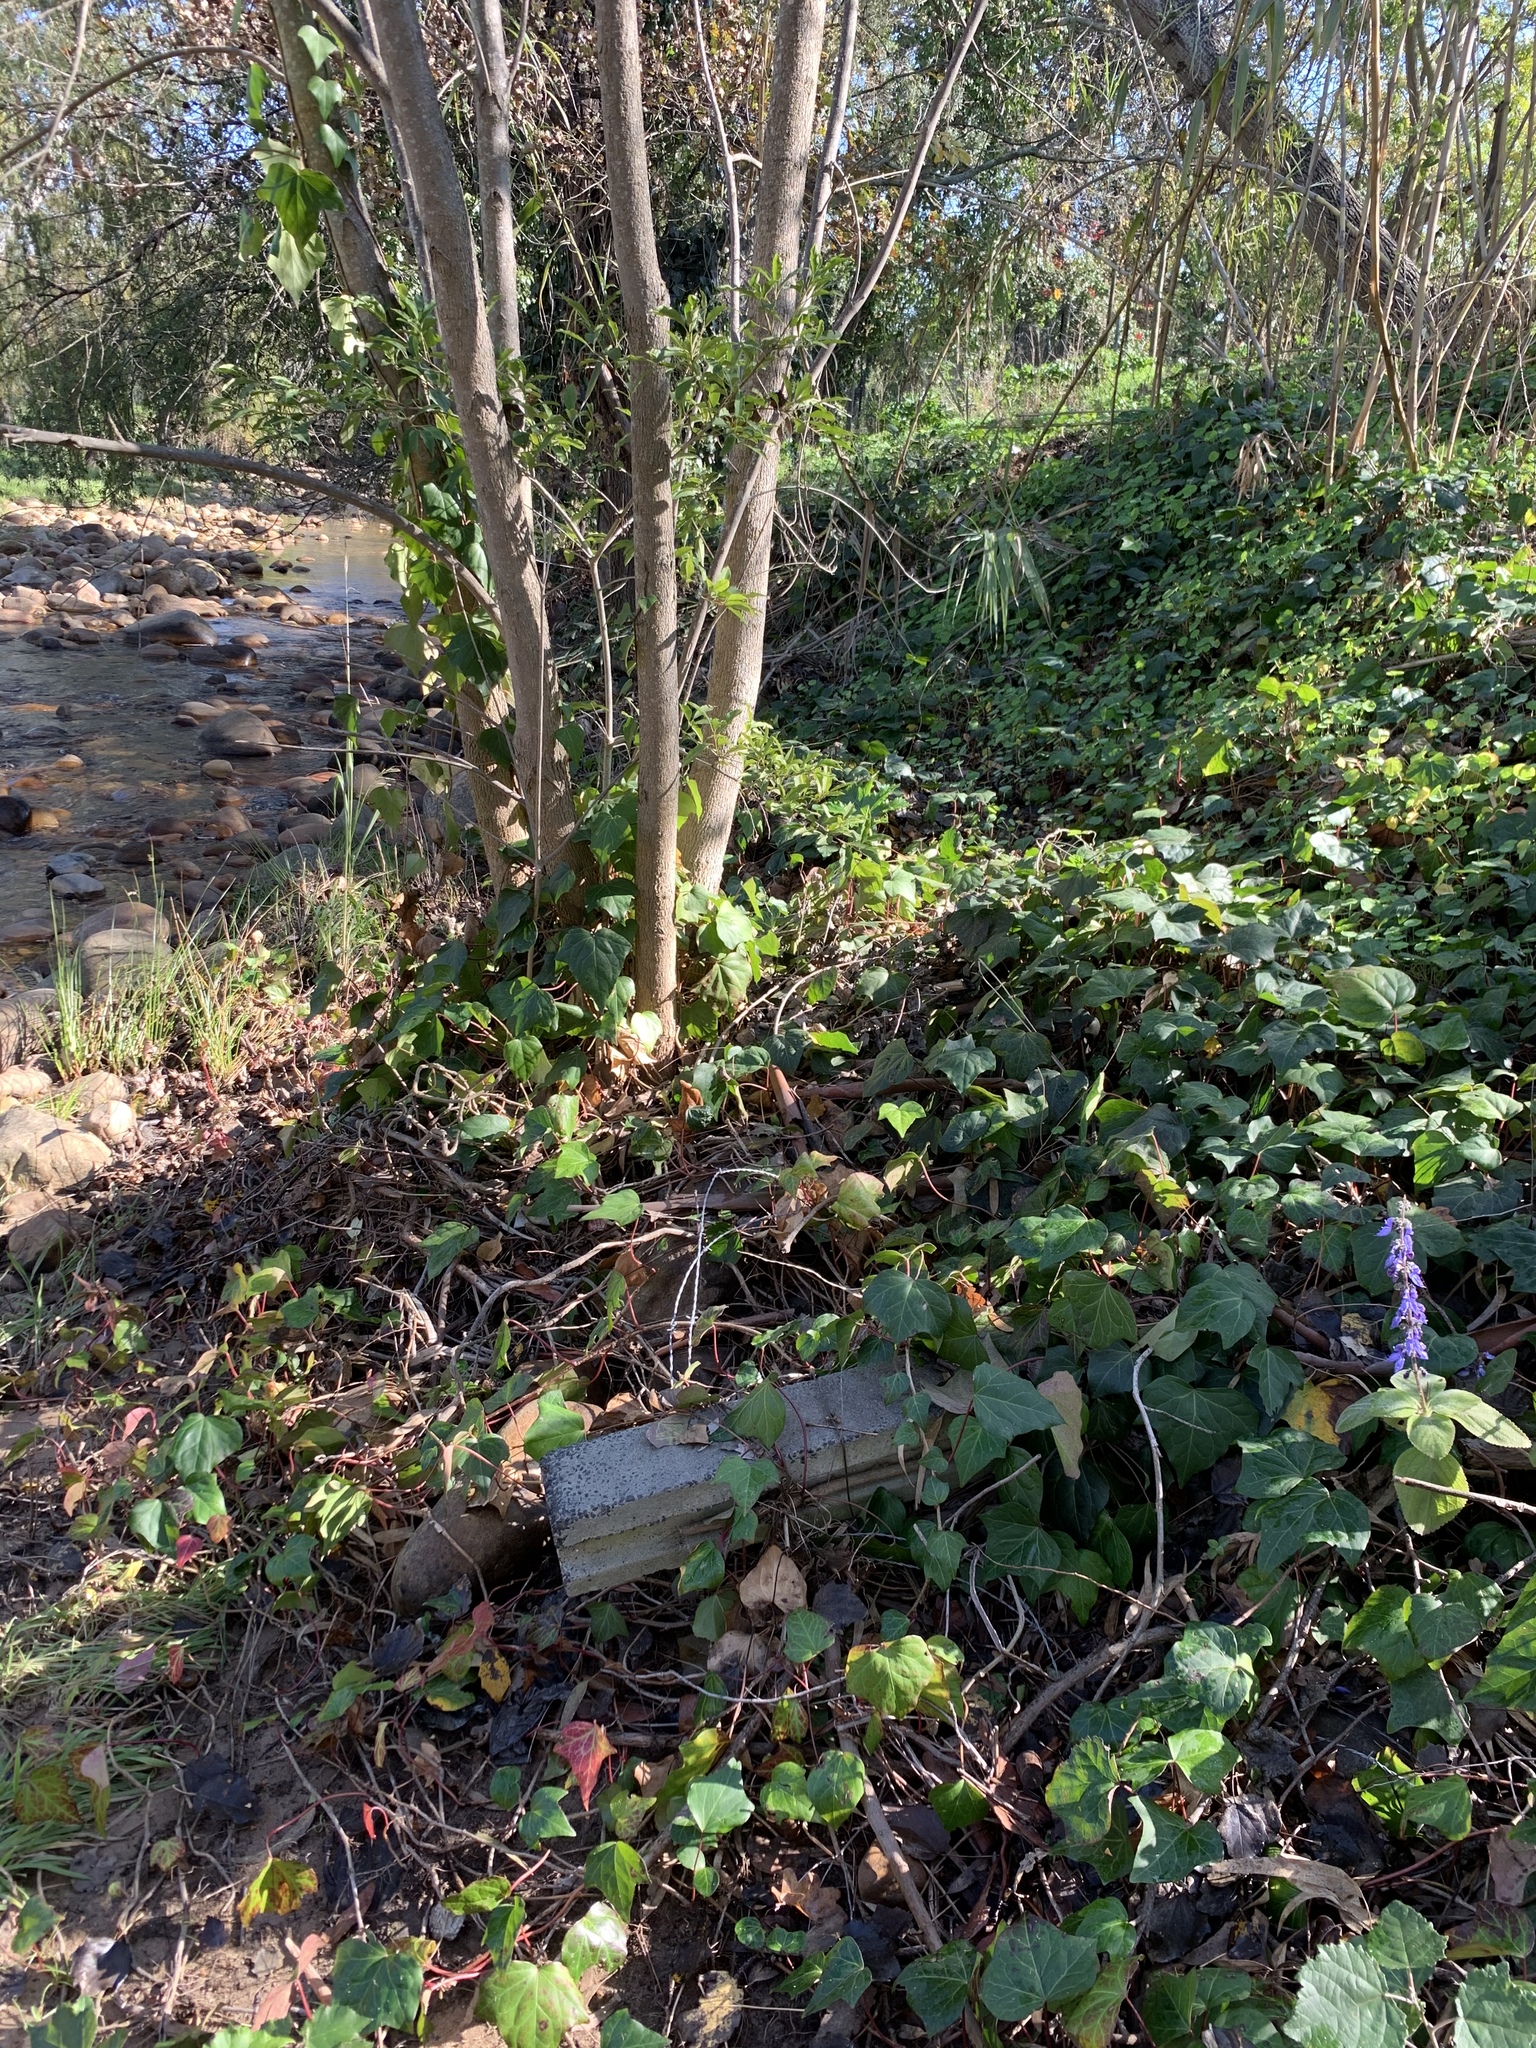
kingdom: Plantae
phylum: Tracheophyta
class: Magnoliopsida
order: Apiales
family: Araliaceae
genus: Hedera
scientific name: Hedera canariensis
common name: Madeira ivy
